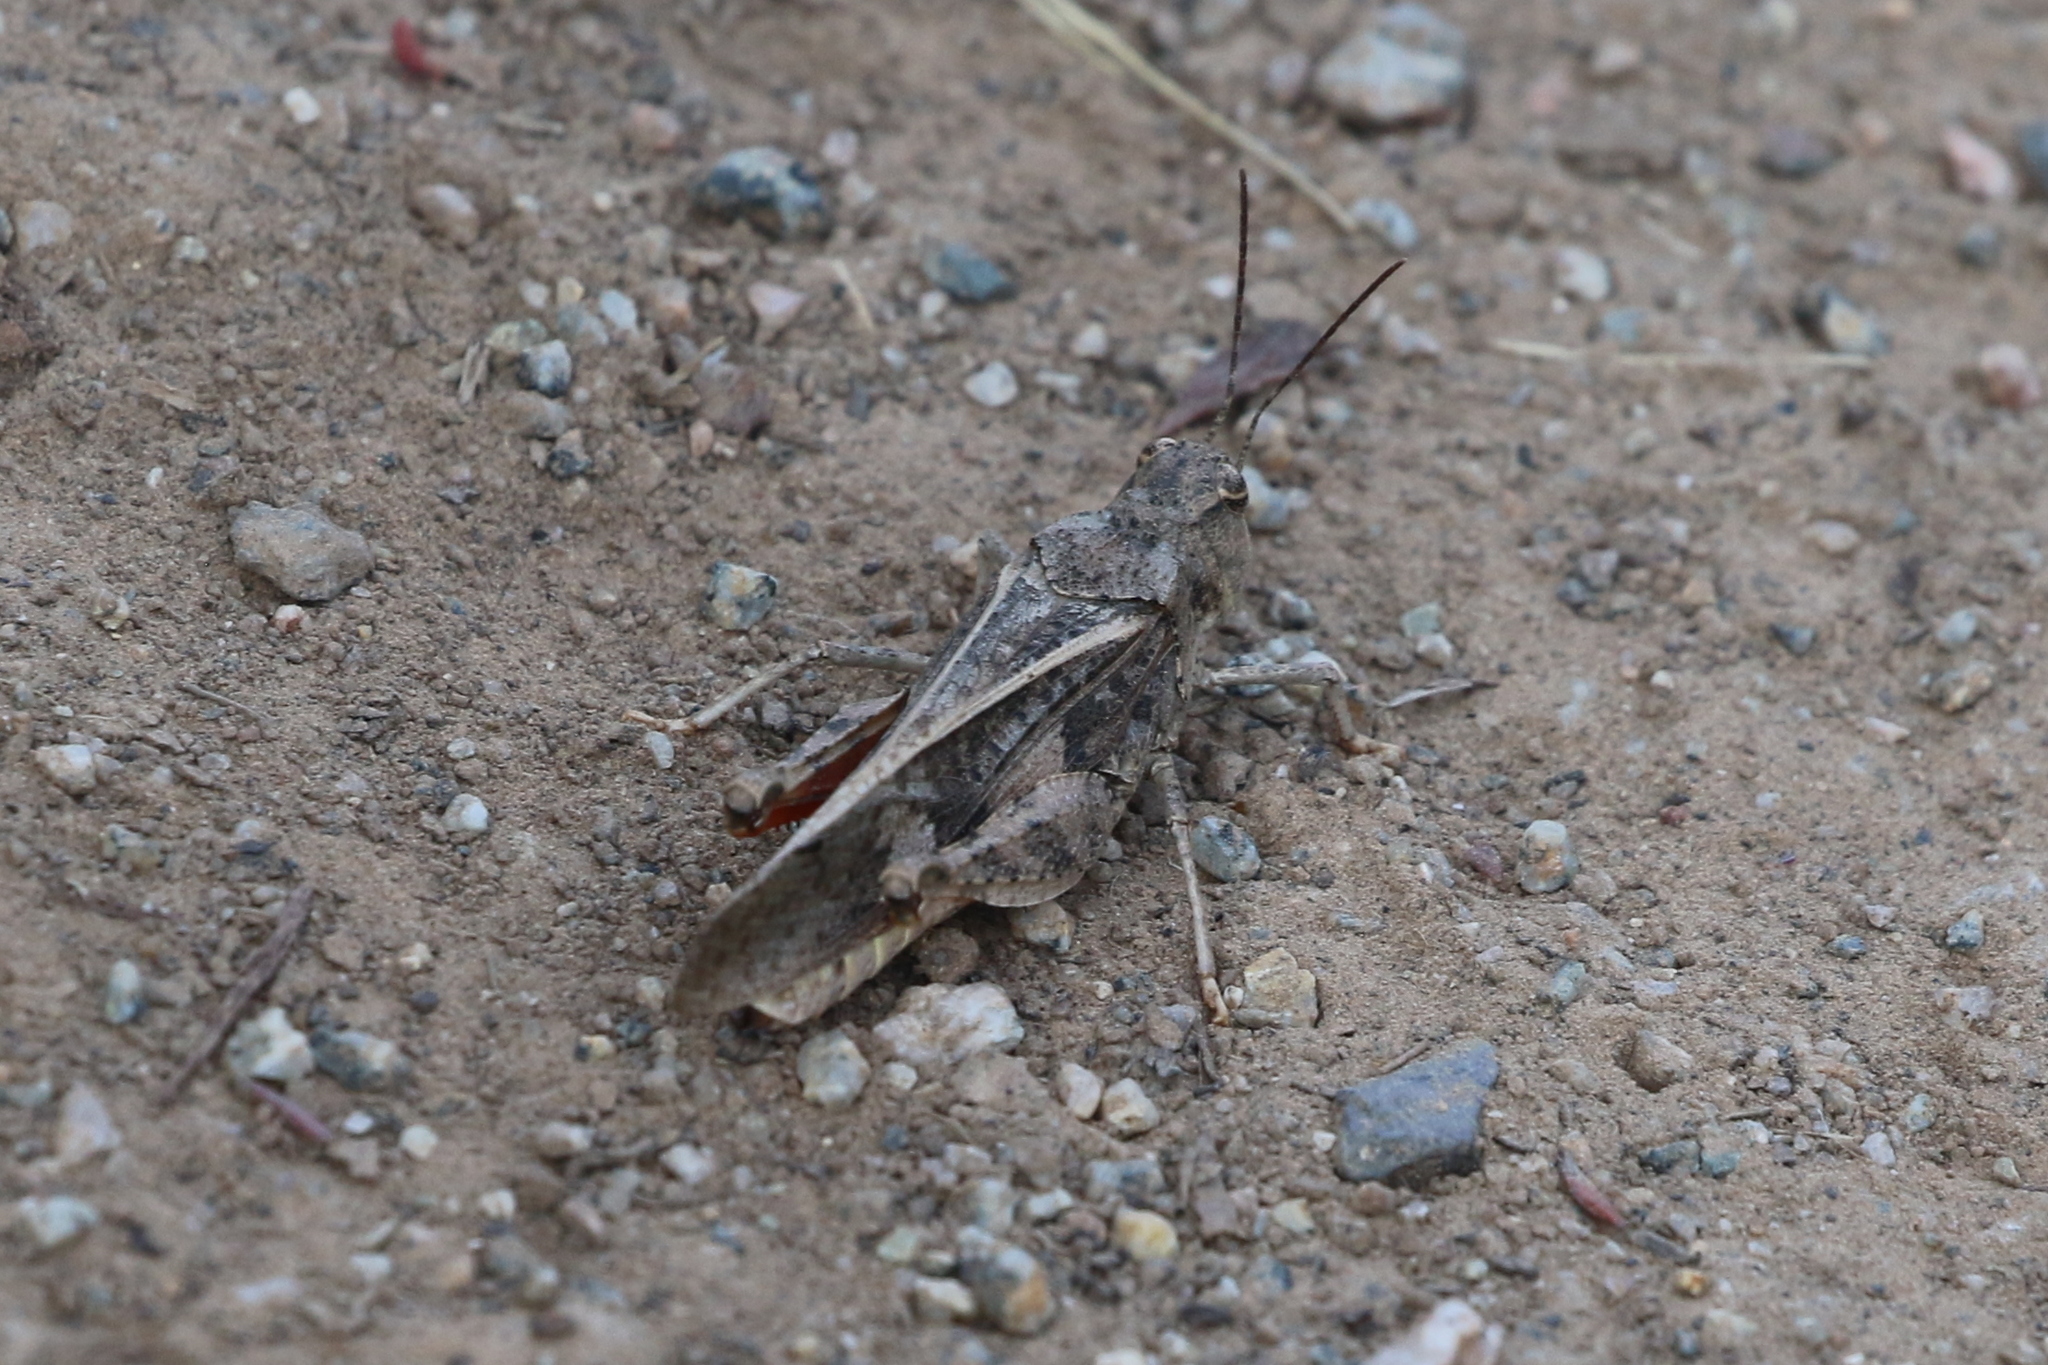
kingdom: Animalia
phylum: Arthropoda
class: Insecta
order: Orthoptera
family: Acrididae
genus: Cratypedes
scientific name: Cratypedes neglectus
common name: Pronotal range grasshopper
